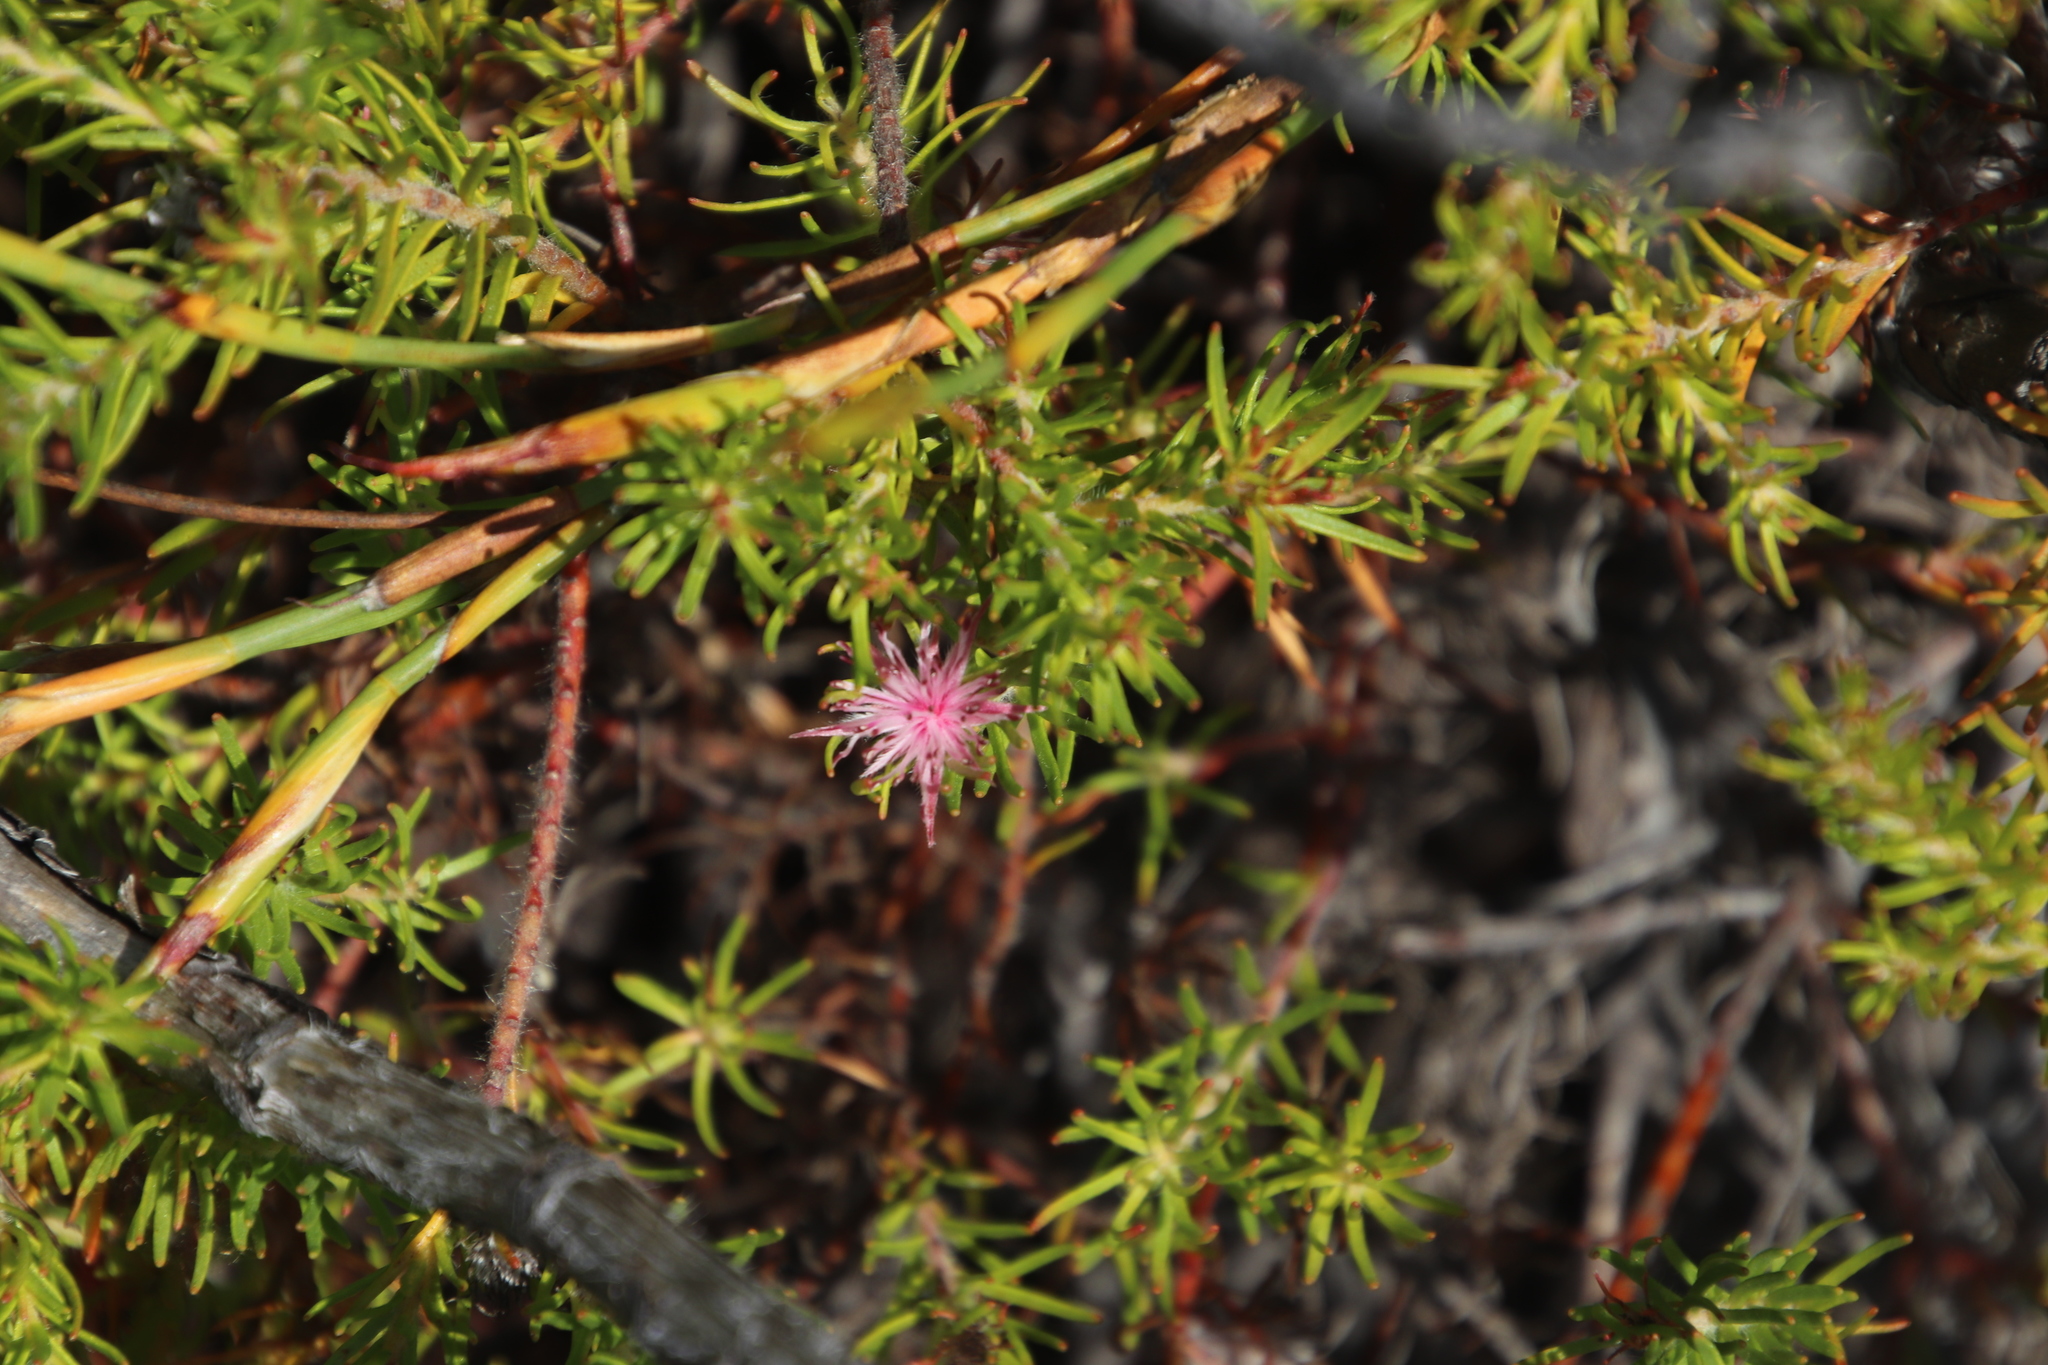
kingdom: Plantae
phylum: Tracheophyta
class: Magnoliopsida
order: Proteales
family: Proteaceae
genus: Diastella
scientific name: Diastella proteoides
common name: Flats silkypuff
